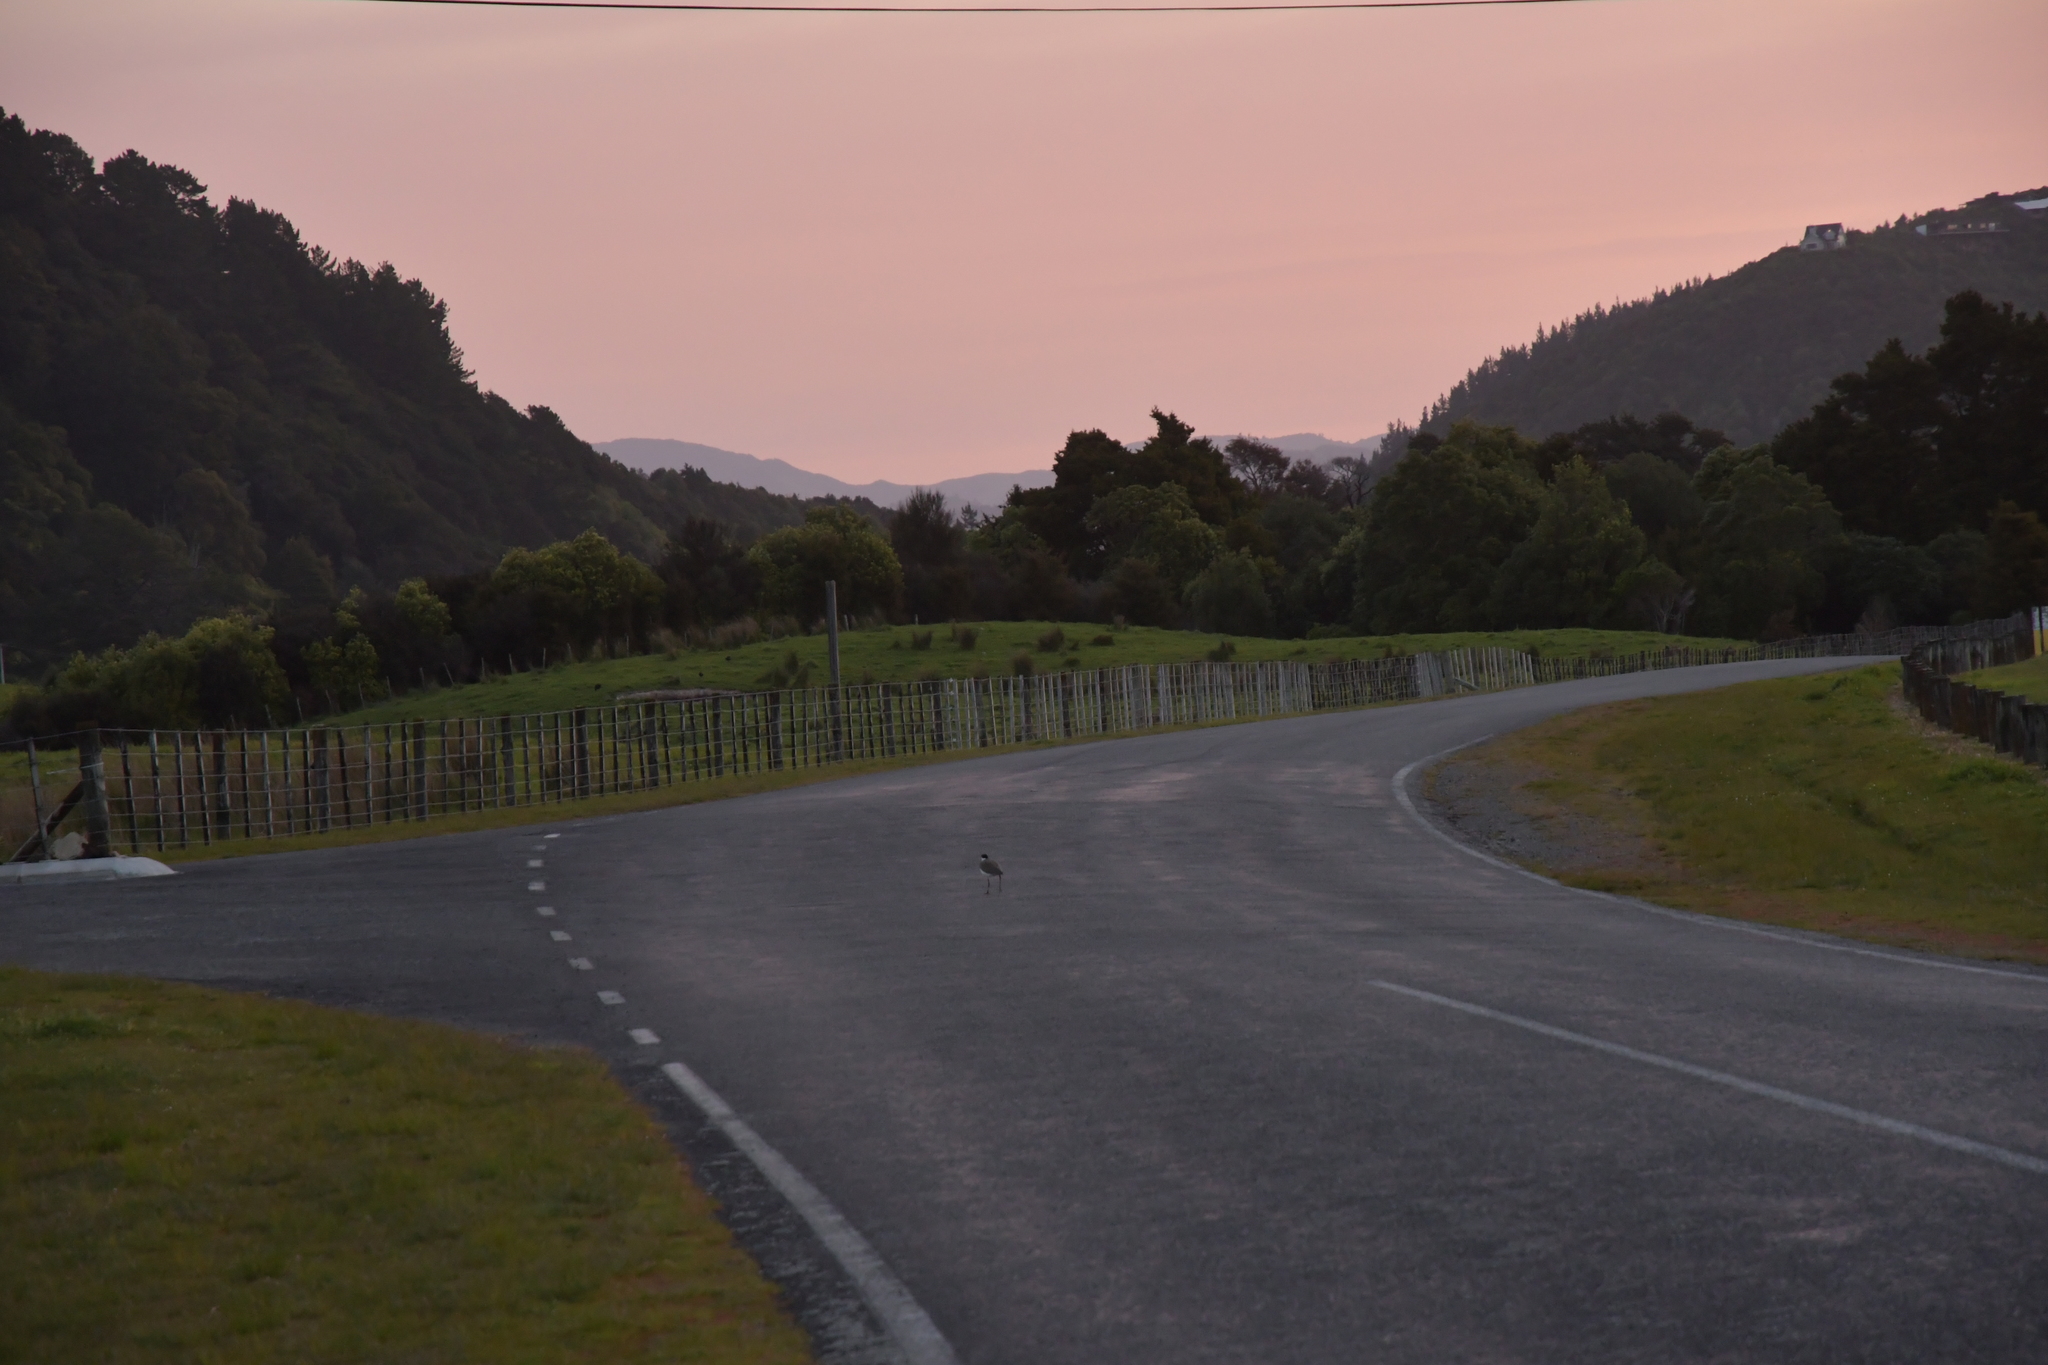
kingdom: Animalia
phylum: Chordata
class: Aves
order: Charadriiformes
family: Charadriidae
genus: Vanellus
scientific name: Vanellus miles
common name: Masked lapwing
